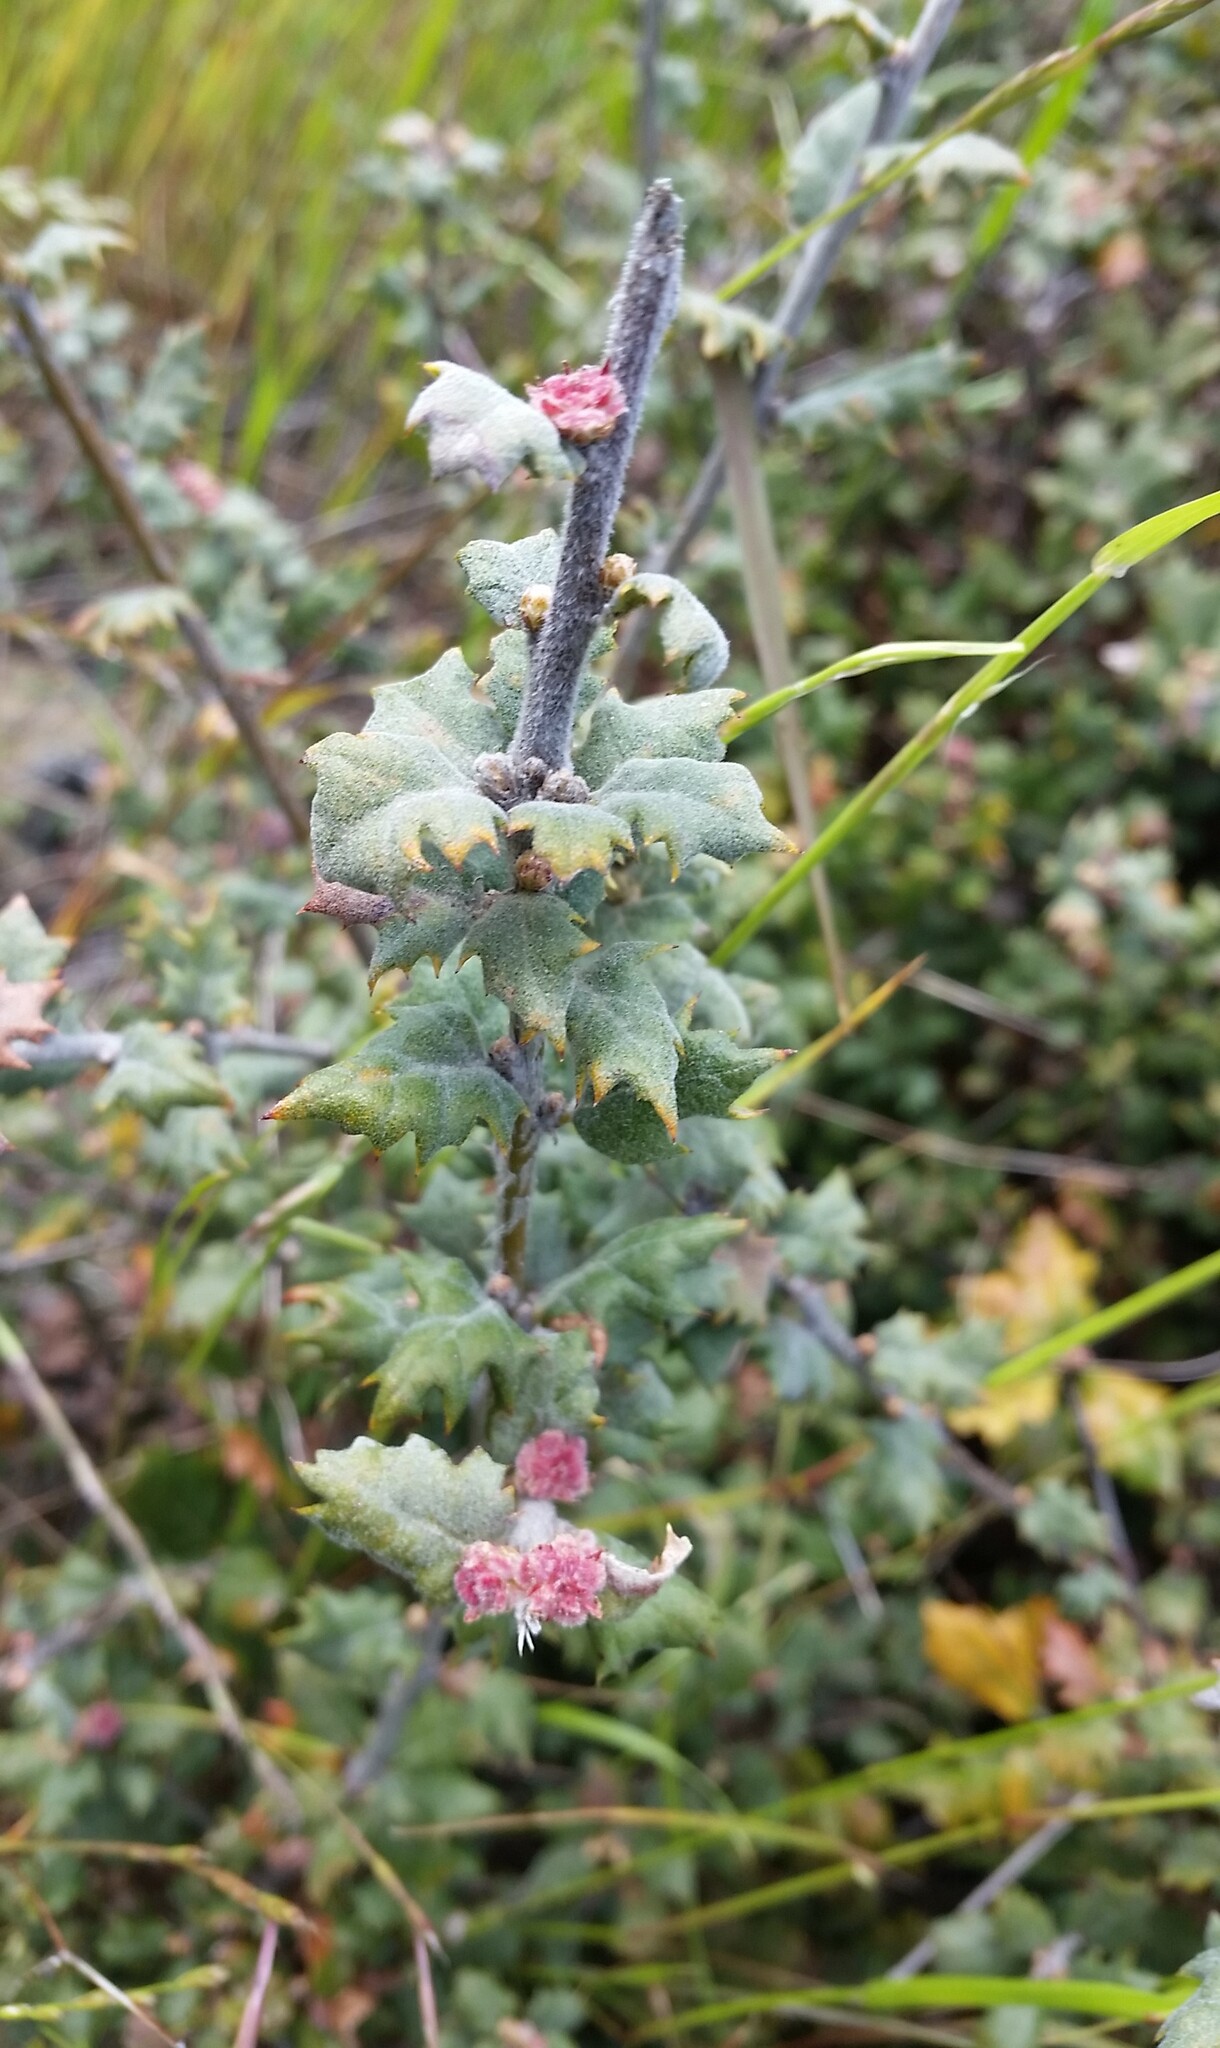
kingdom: Plantae
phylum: Tracheophyta
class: Magnoliopsida
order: Fagales
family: Fagaceae
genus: Quercus
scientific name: Quercus durata
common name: Leather oak
